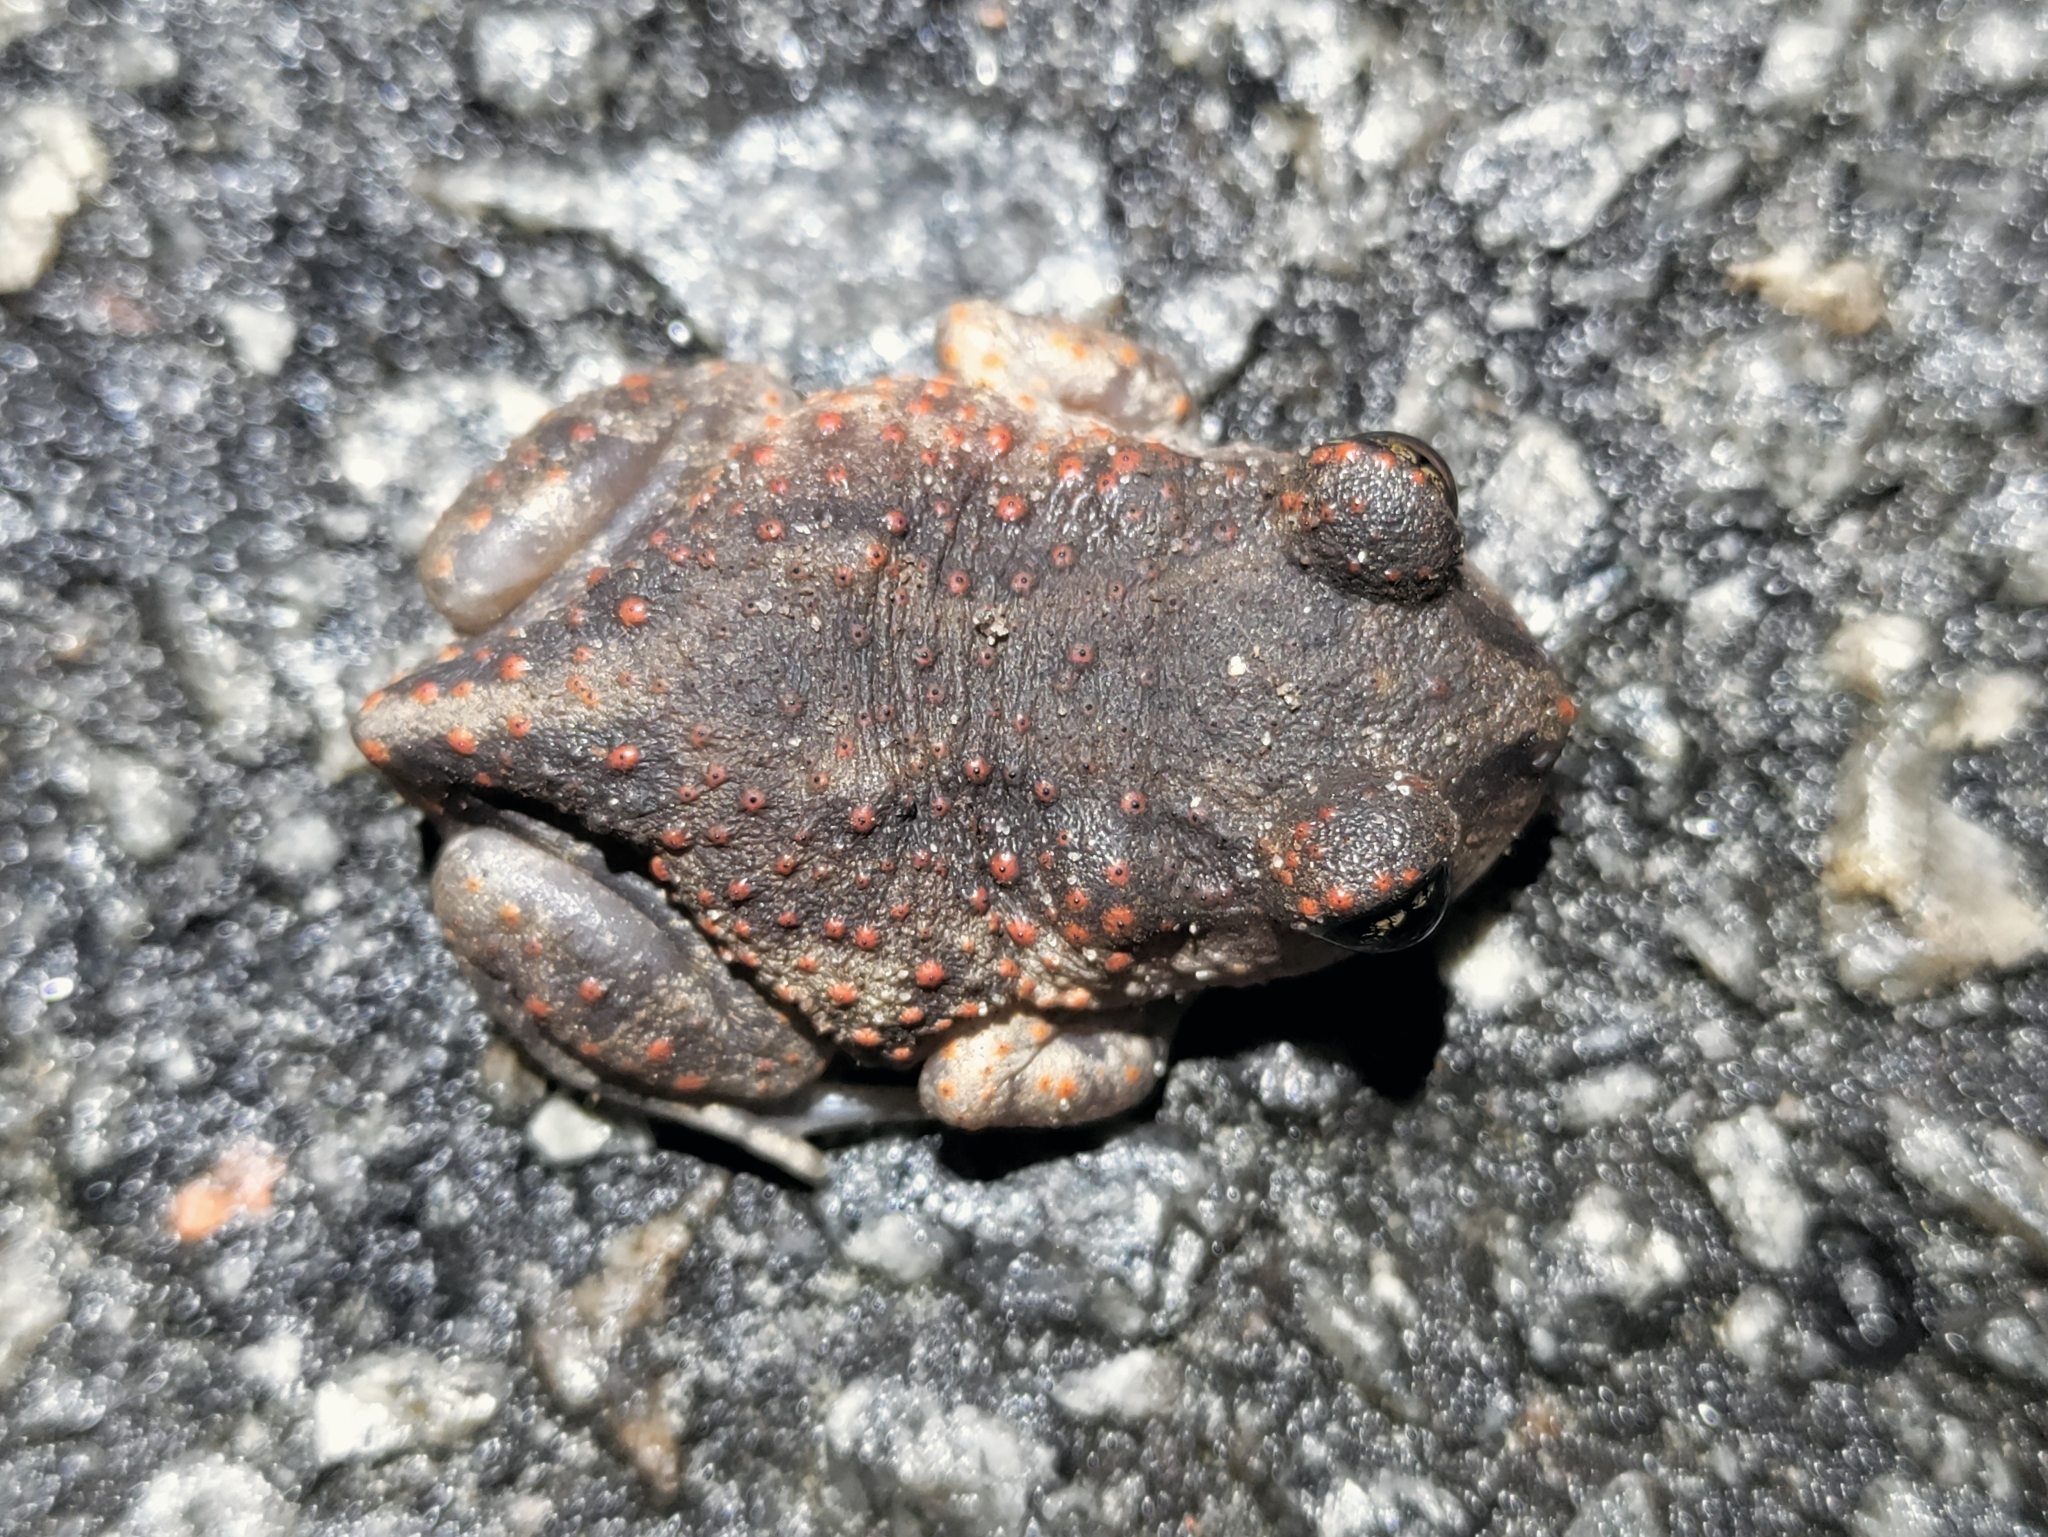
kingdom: Animalia
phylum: Chordata
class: Amphibia
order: Anura
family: Scaphiopodidae
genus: Scaphiopus
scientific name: Scaphiopus holbrookii
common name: Eastern spadefoot toad
